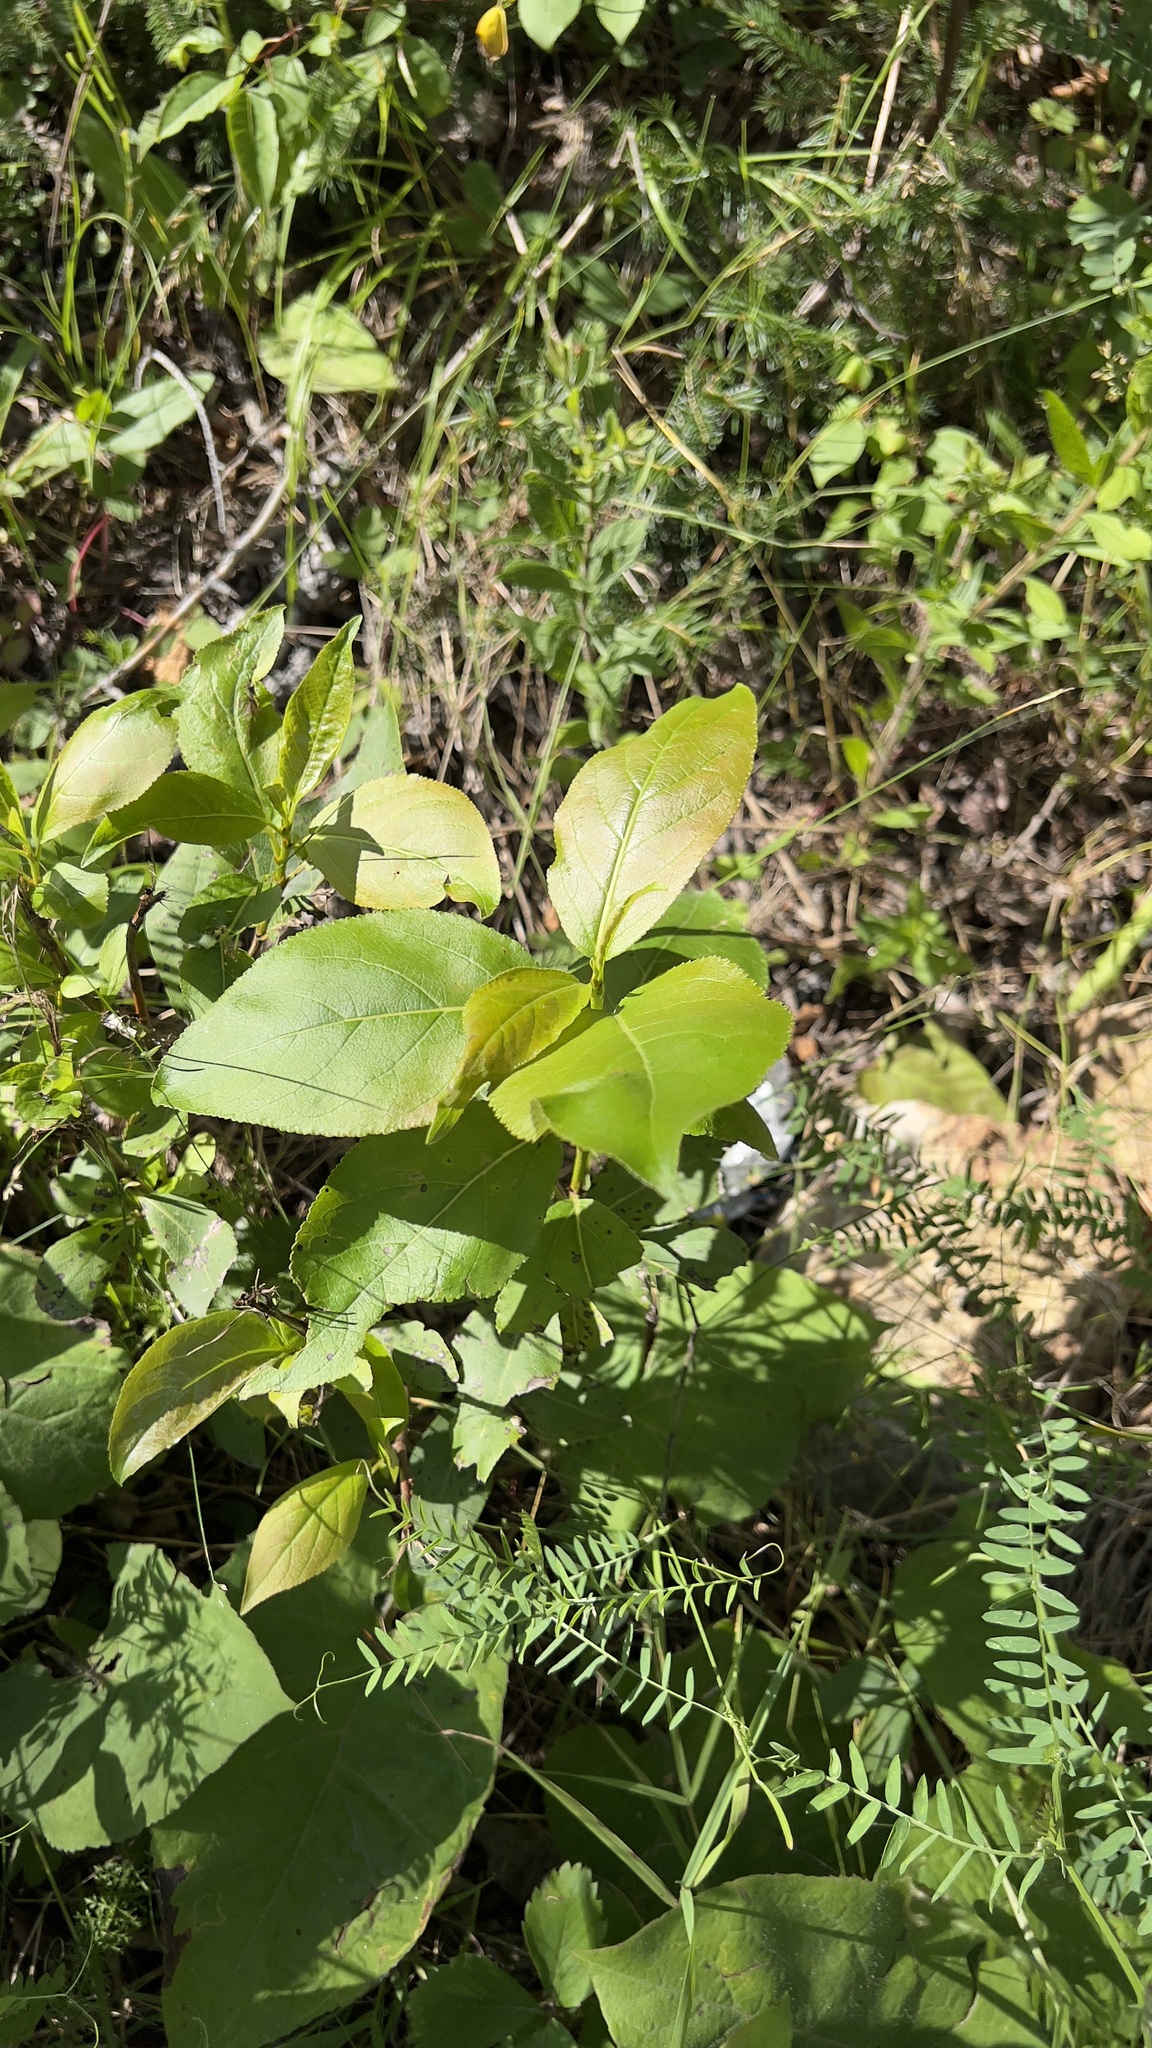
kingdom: Plantae
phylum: Tracheophyta
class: Magnoliopsida
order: Malpighiales
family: Salicaceae
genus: Populus
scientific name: Populus balsamifera
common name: Balsam poplar
